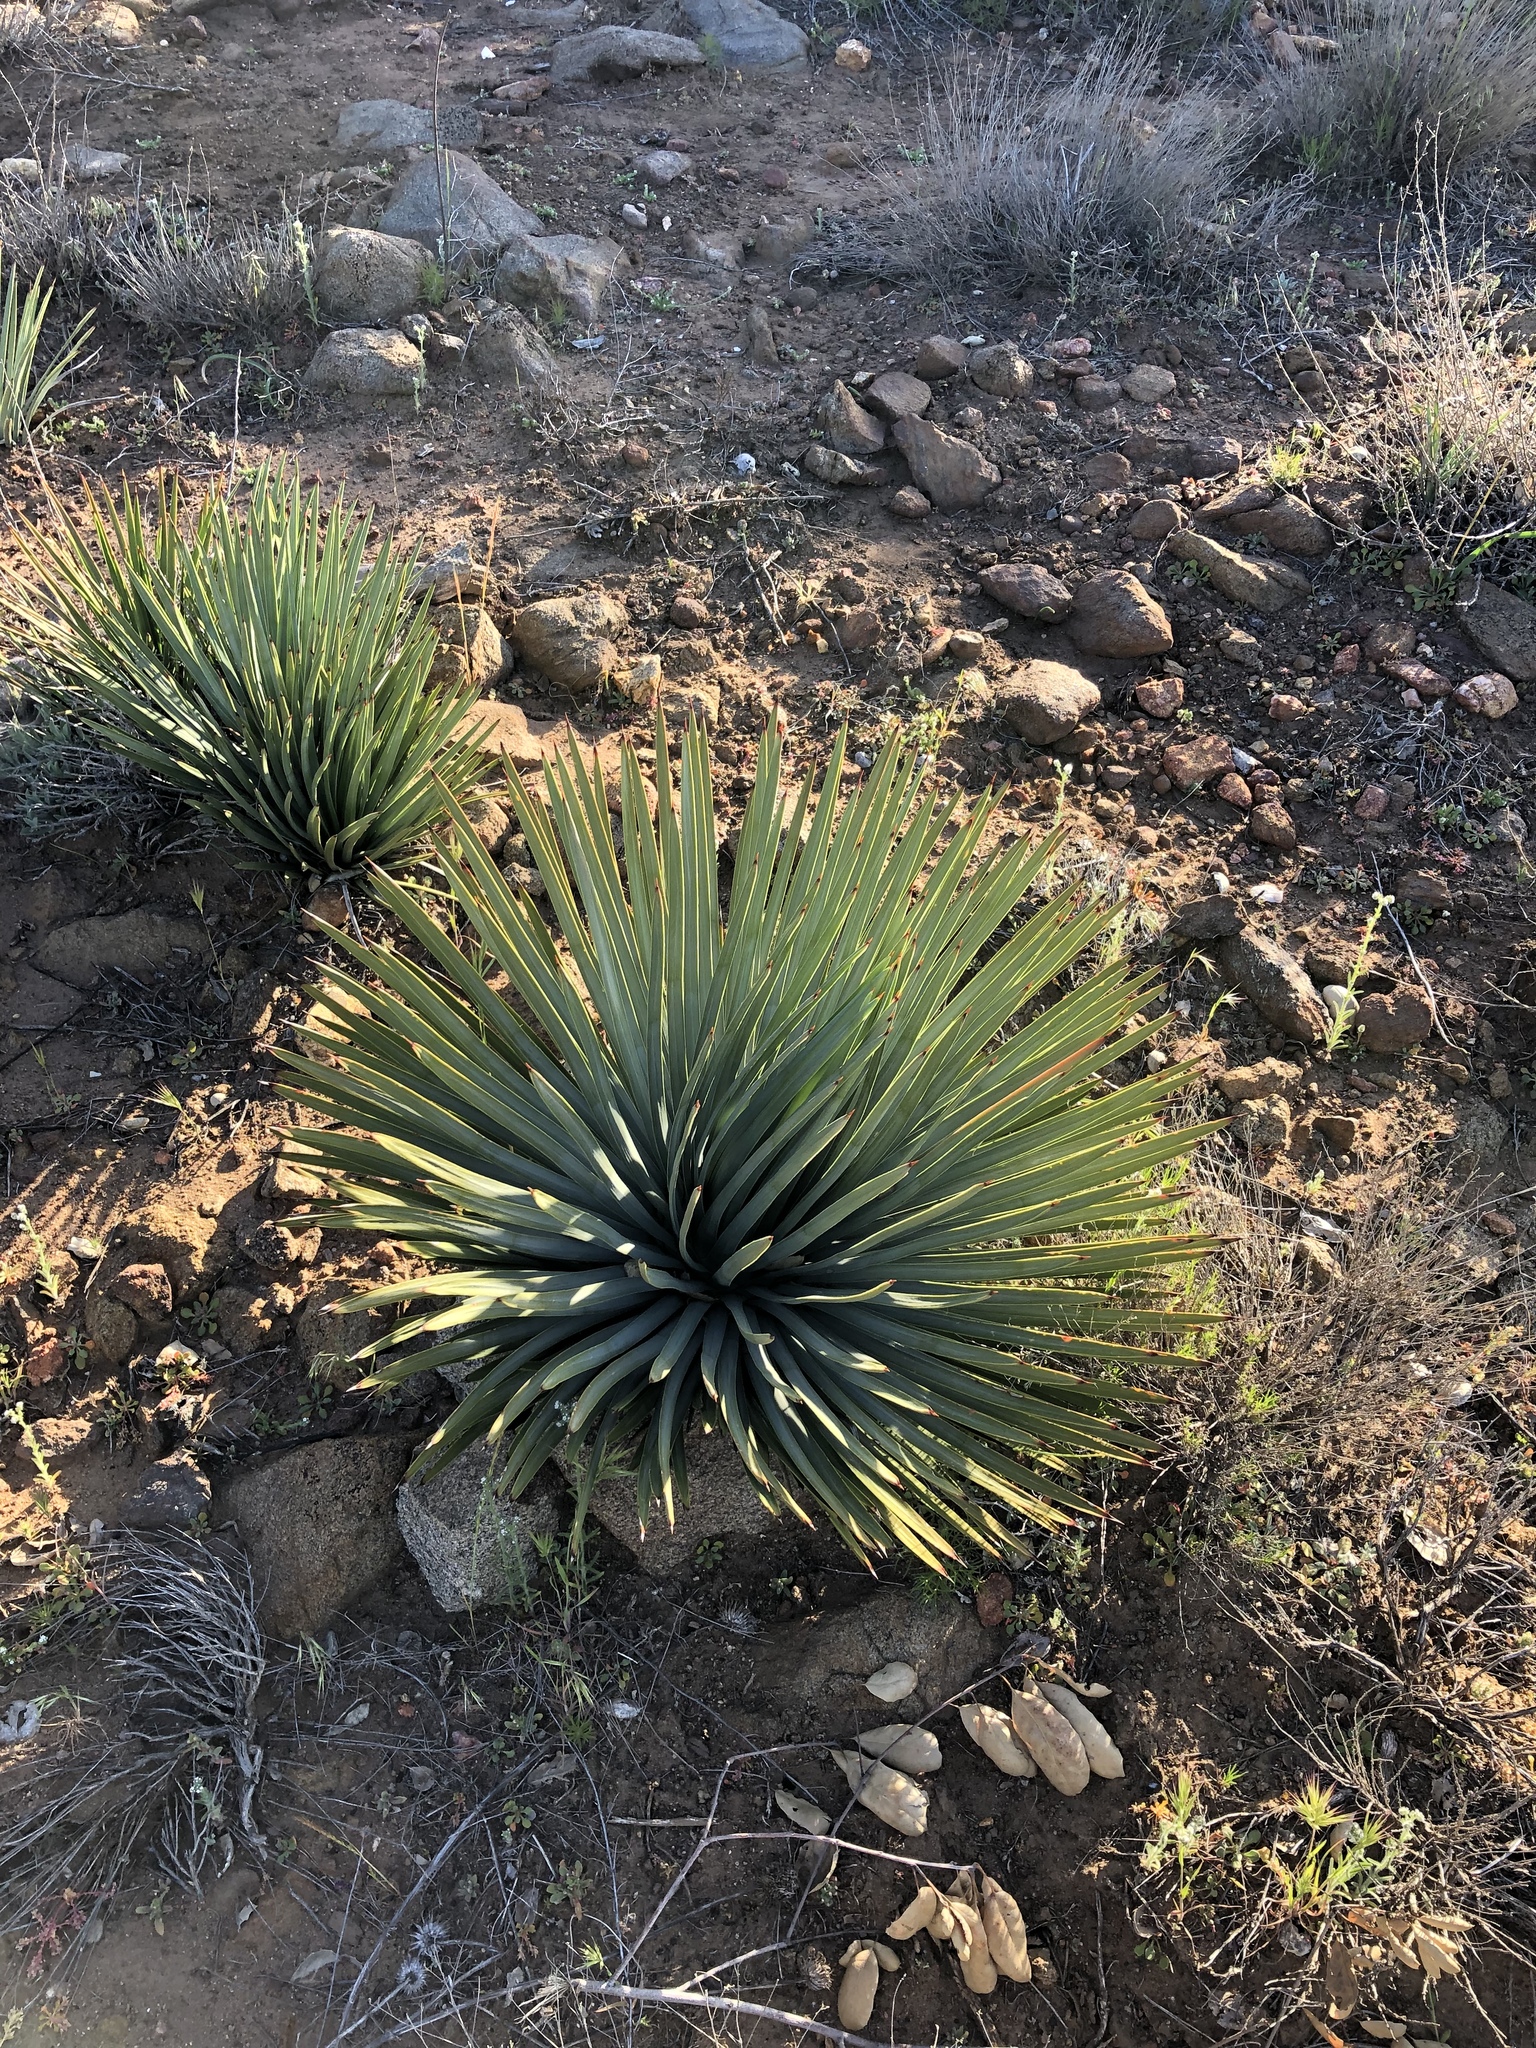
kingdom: Plantae
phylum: Tracheophyta
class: Liliopsida
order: Asparagales
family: Asparagaceae
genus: Hesperoyucca
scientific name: Hesperoyucca whipplei
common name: Our lord's-candle
